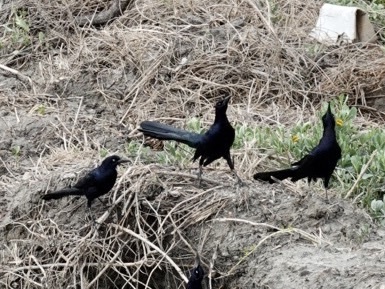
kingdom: Animalia
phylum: Chordata
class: Aves
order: Passeriformes
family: Icteridae
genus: Quiscalus
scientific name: Quiscalus mexicanus
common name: Great-tailed grackle
